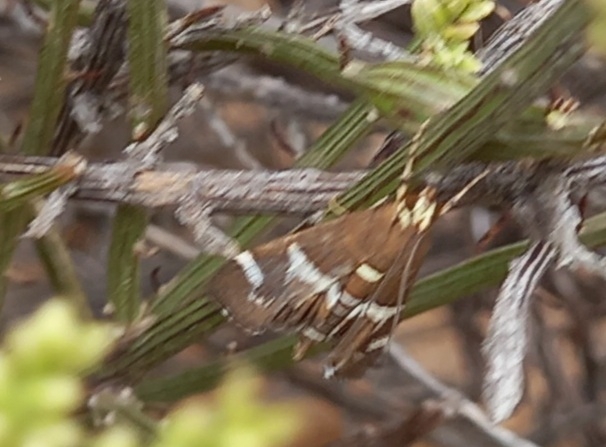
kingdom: Animalia
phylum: Arthropoda
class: Insecta
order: Lepidoptera
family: Crambidae
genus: Spoladea
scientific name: Spoladea recurvalis
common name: Beet webworm moth
